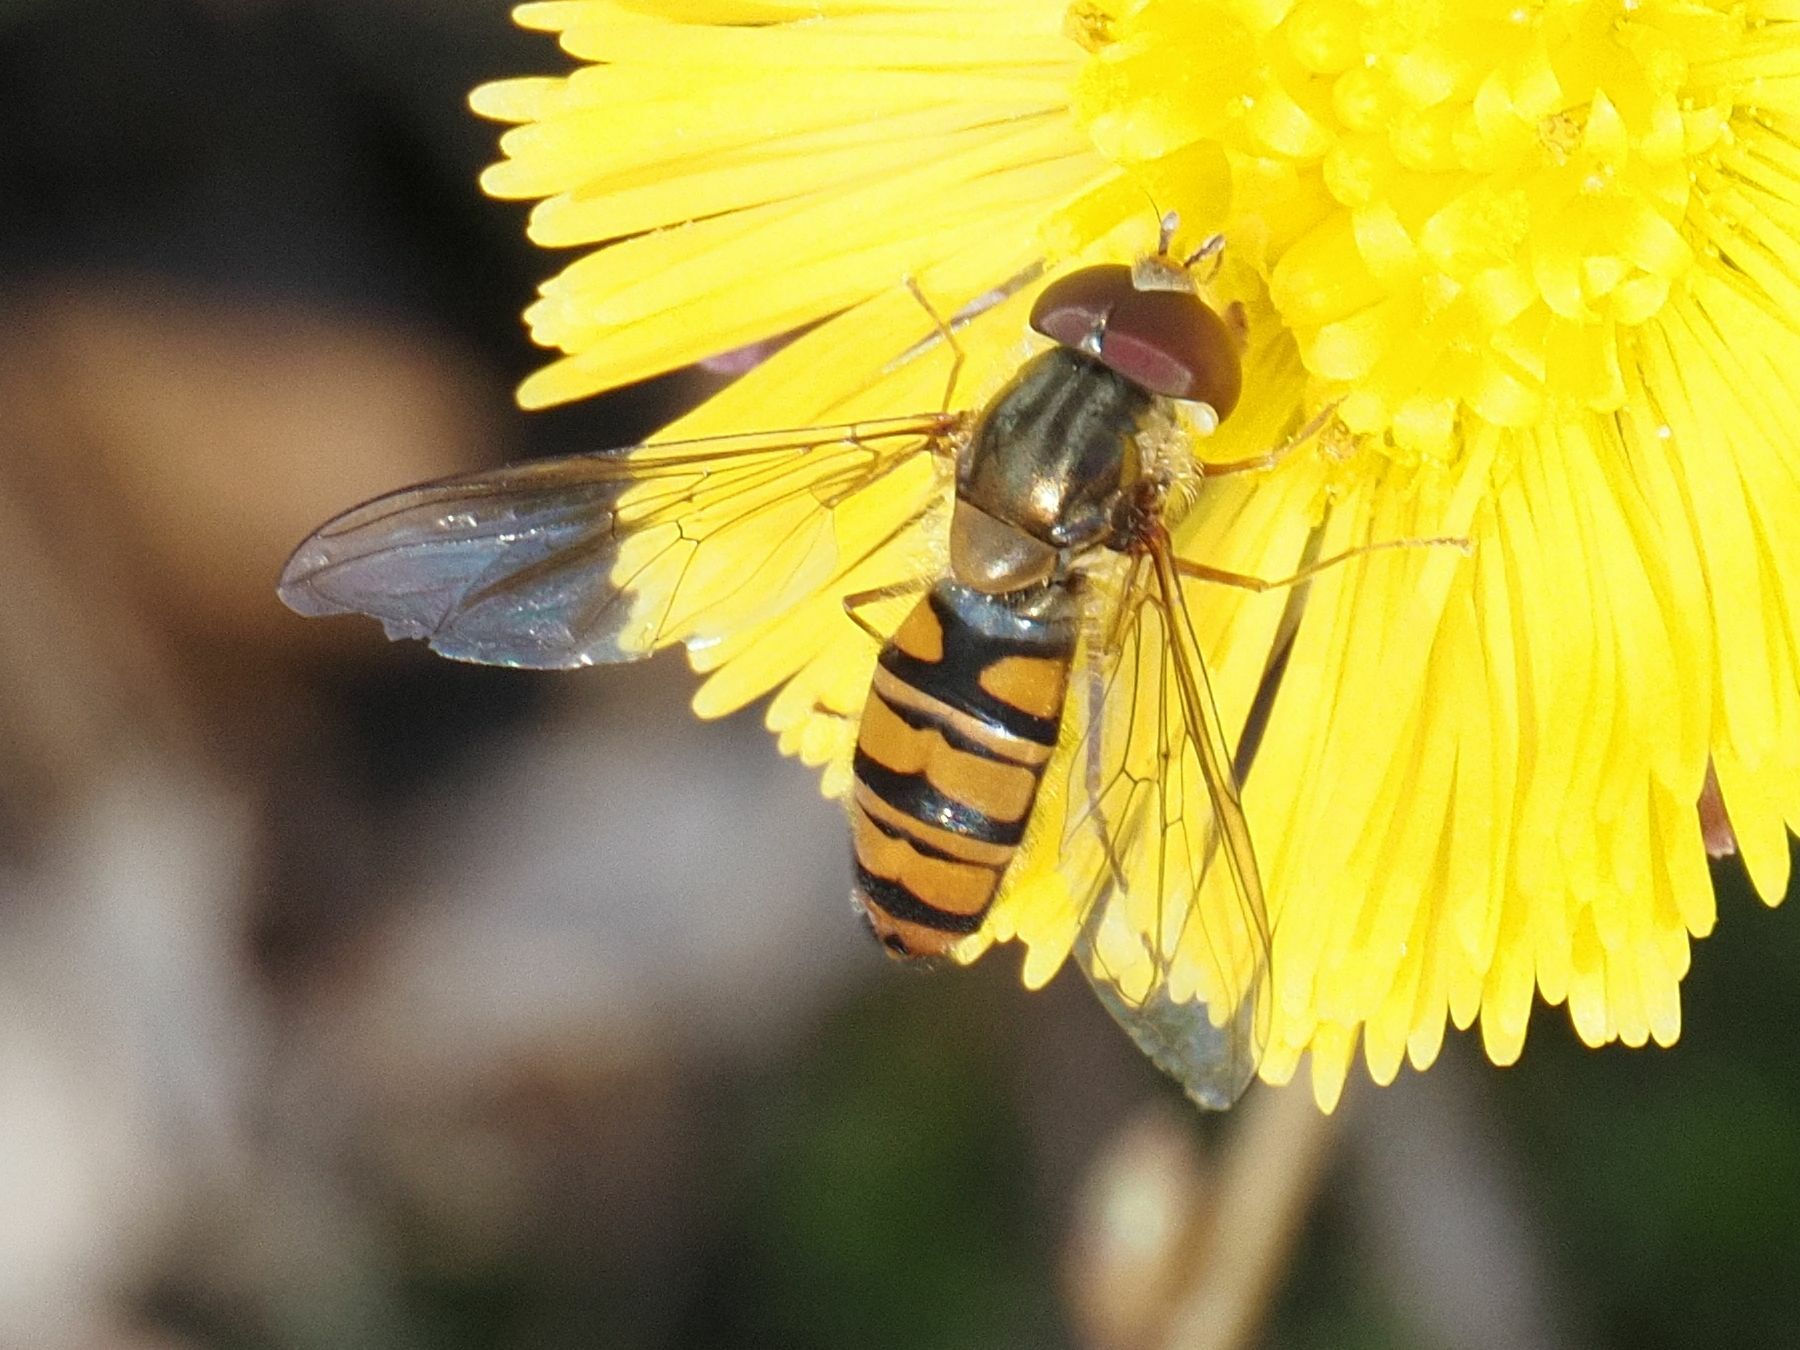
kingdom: Animalia
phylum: Arthropoda
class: Insecta
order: Diptera
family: Syrphidae
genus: Episyrphus
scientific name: Episyrphus balteatus
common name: Marmalade hoverfly
